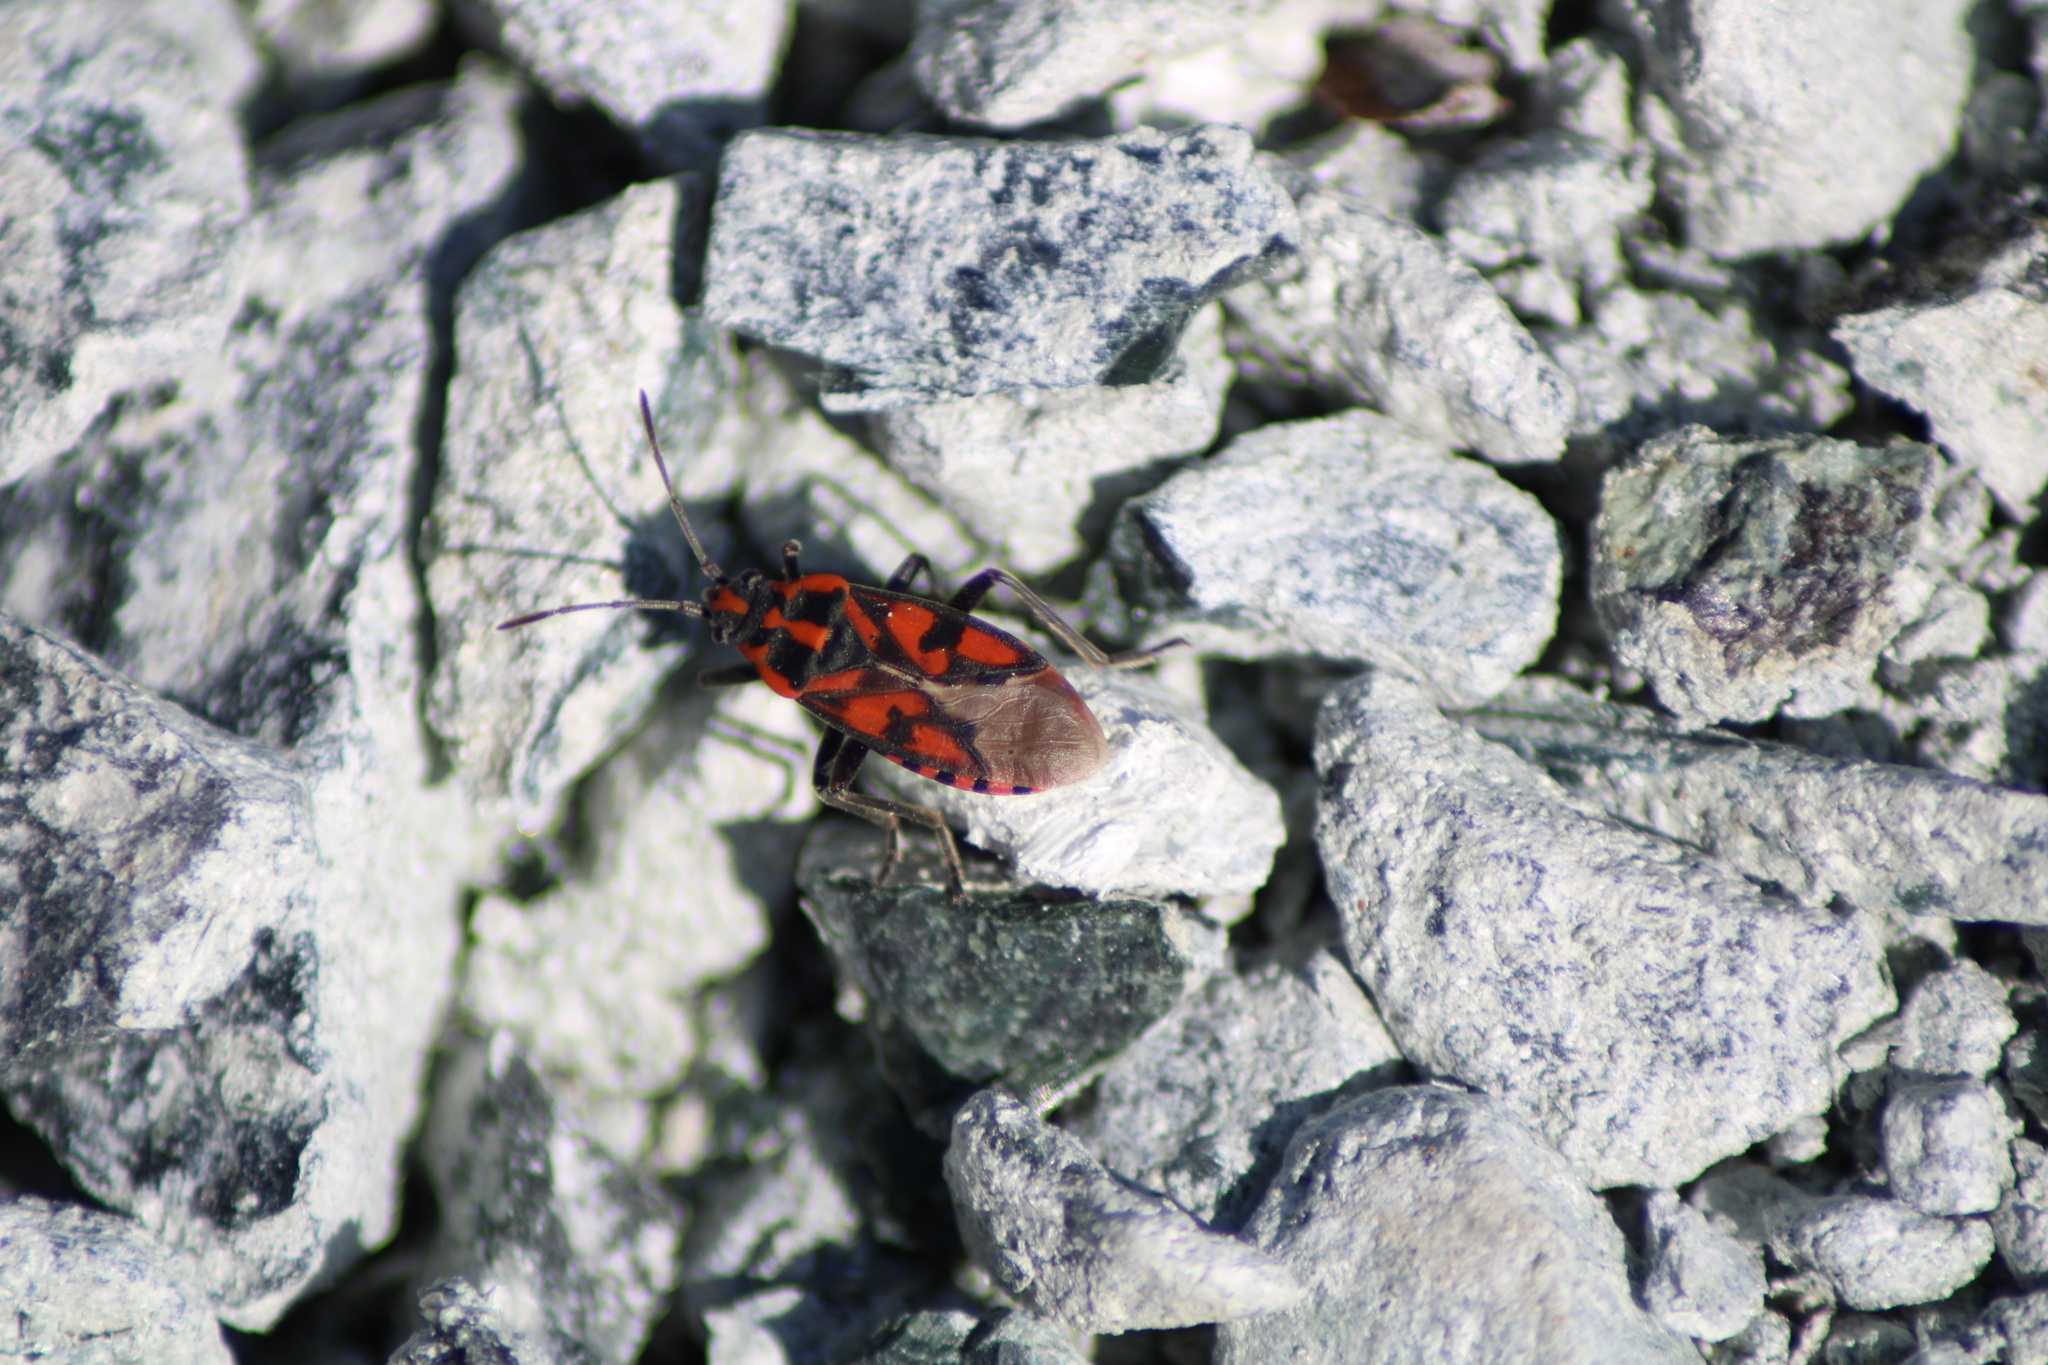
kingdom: Animalia
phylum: Arthropoda
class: Insecta
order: Hemiptera
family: Lygaeidae
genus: Spilostethus
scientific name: Spilostethus saxatilis
